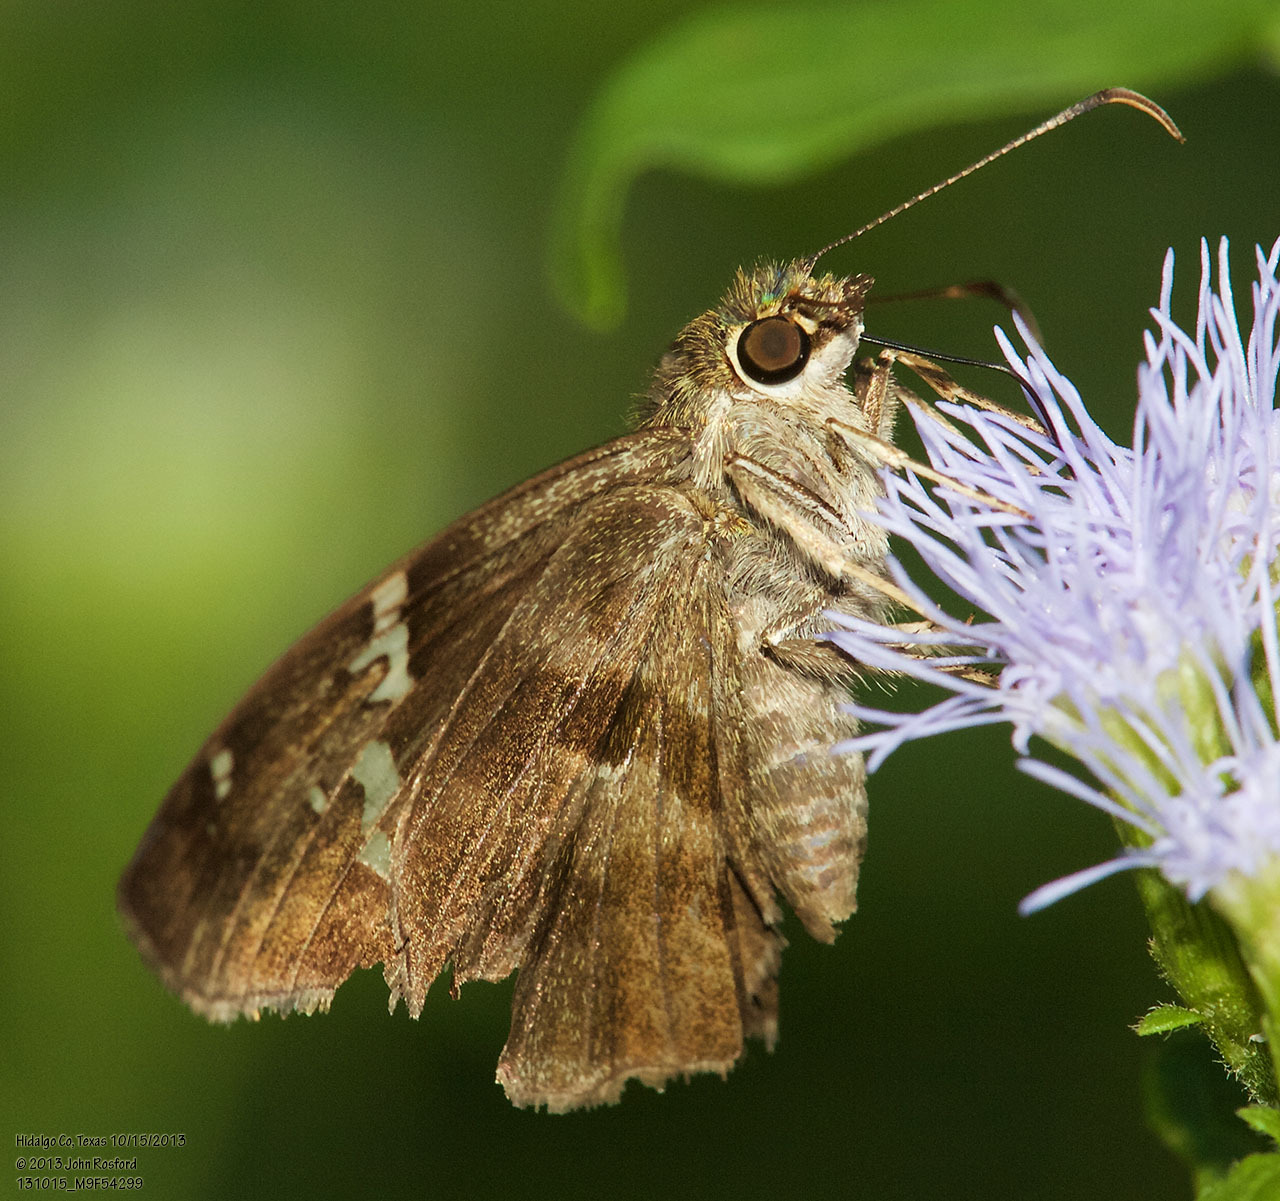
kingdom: Animalia
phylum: Arthropoda
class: Insecta
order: Lepidoptera
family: Hesperiidae
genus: Autochton
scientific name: Autochton potrillo
